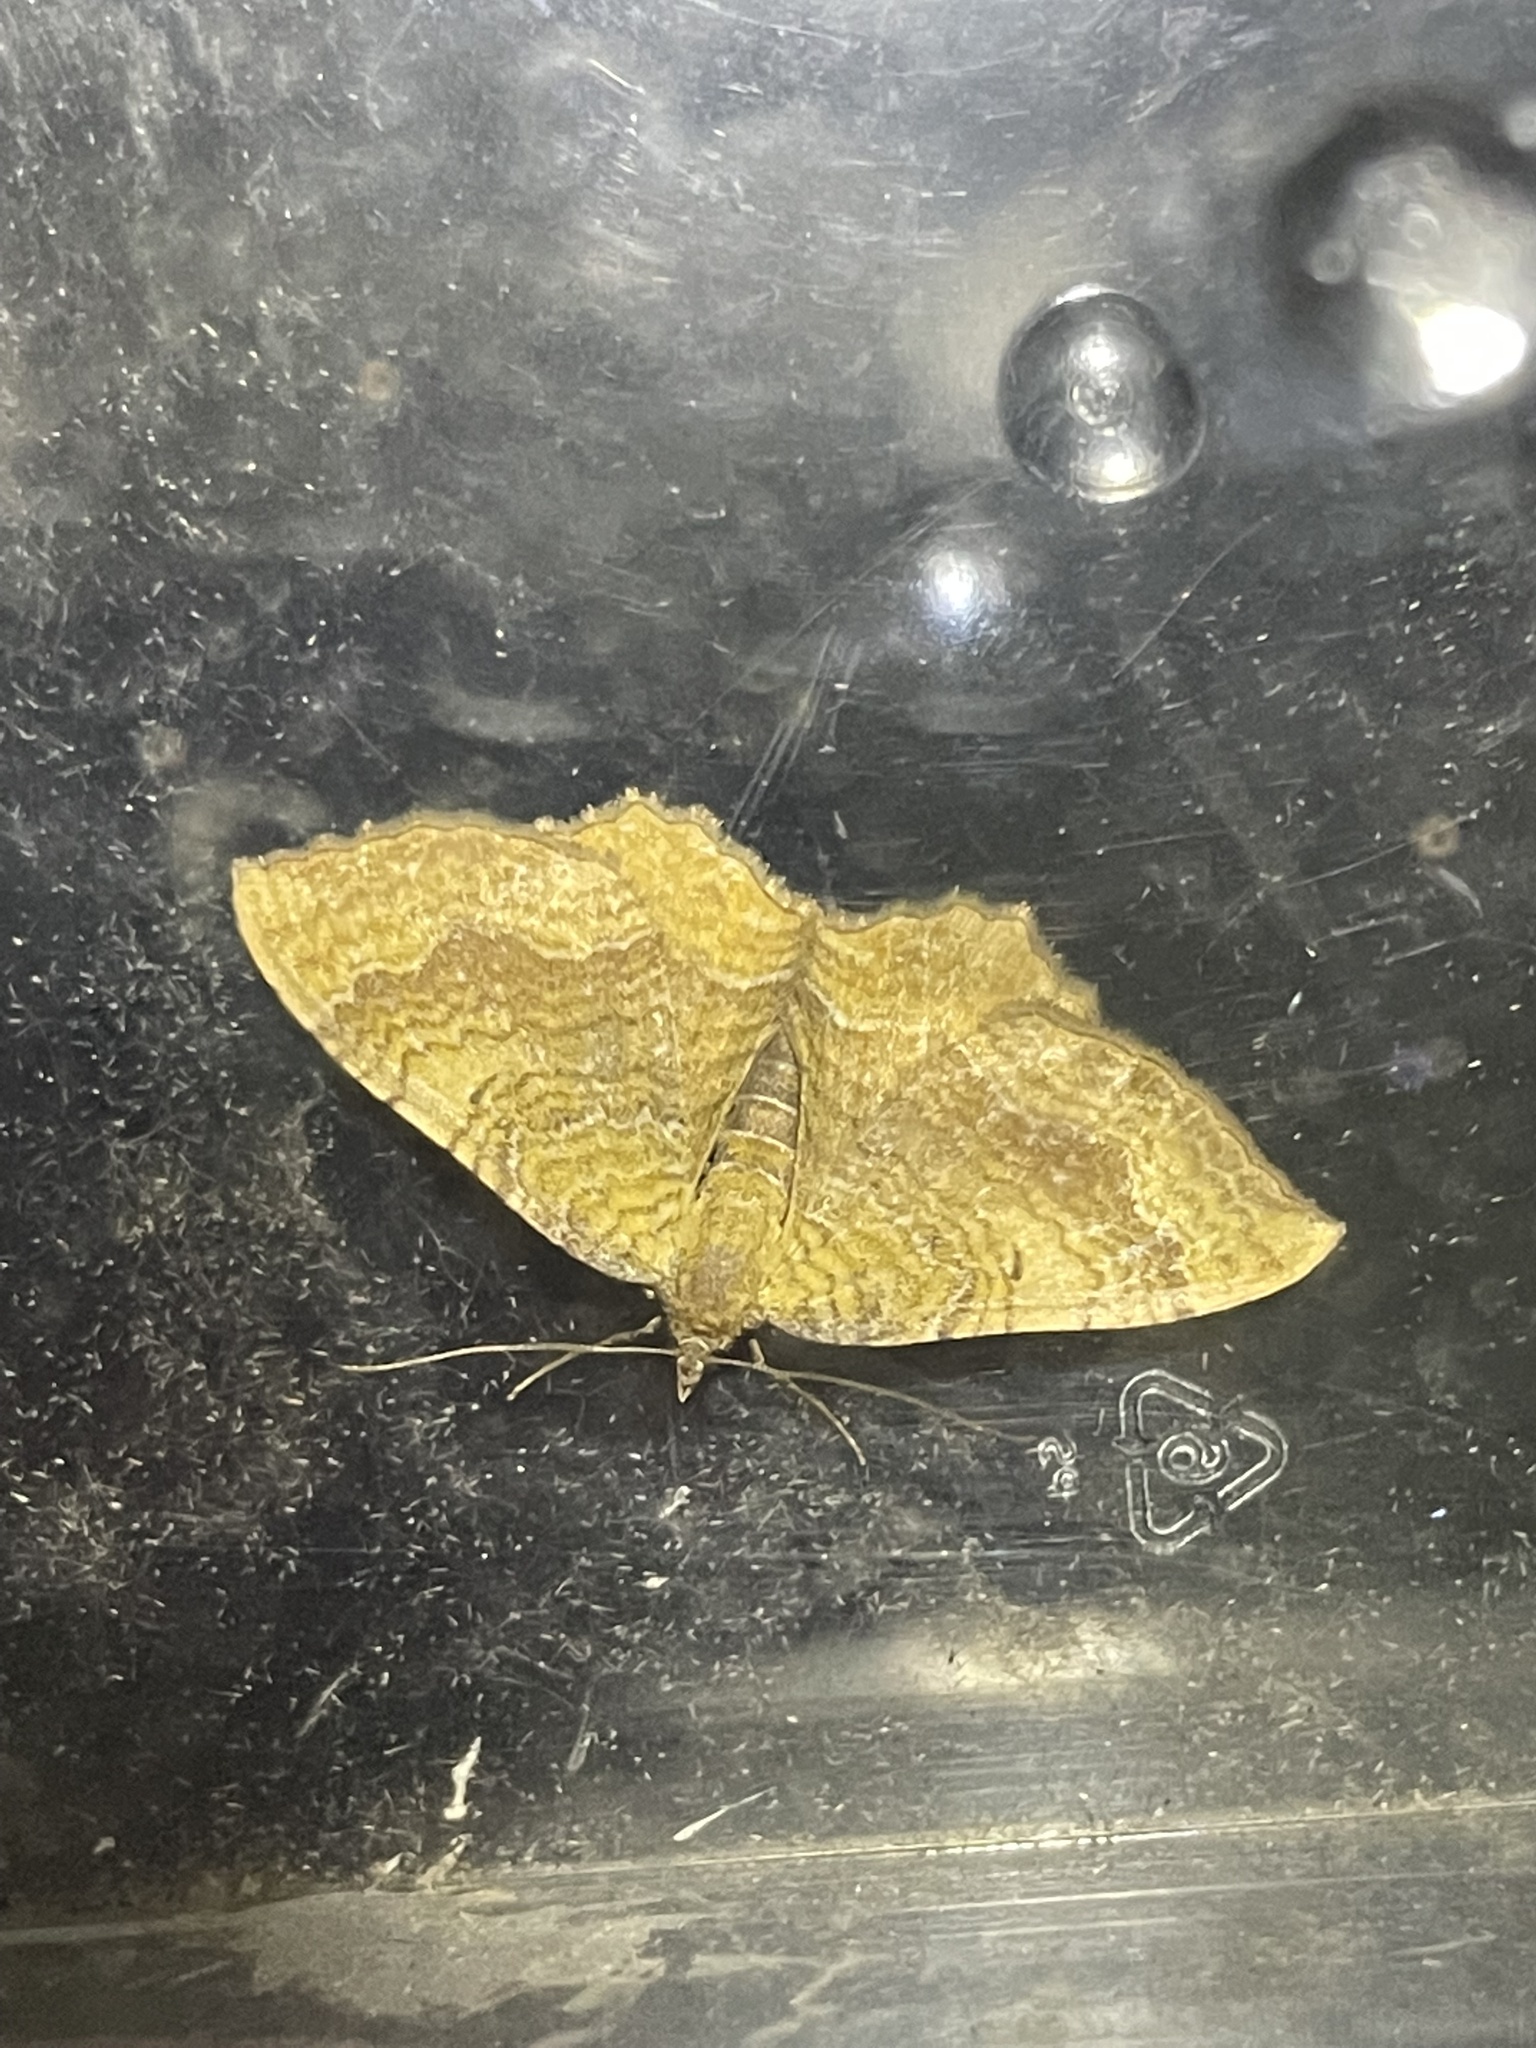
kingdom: Animalia
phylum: Arthropoda
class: Insecta
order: Lepidoptera
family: Geometridae
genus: Camptogramma
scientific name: Camptogramma bilineata
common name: Yellow shell
